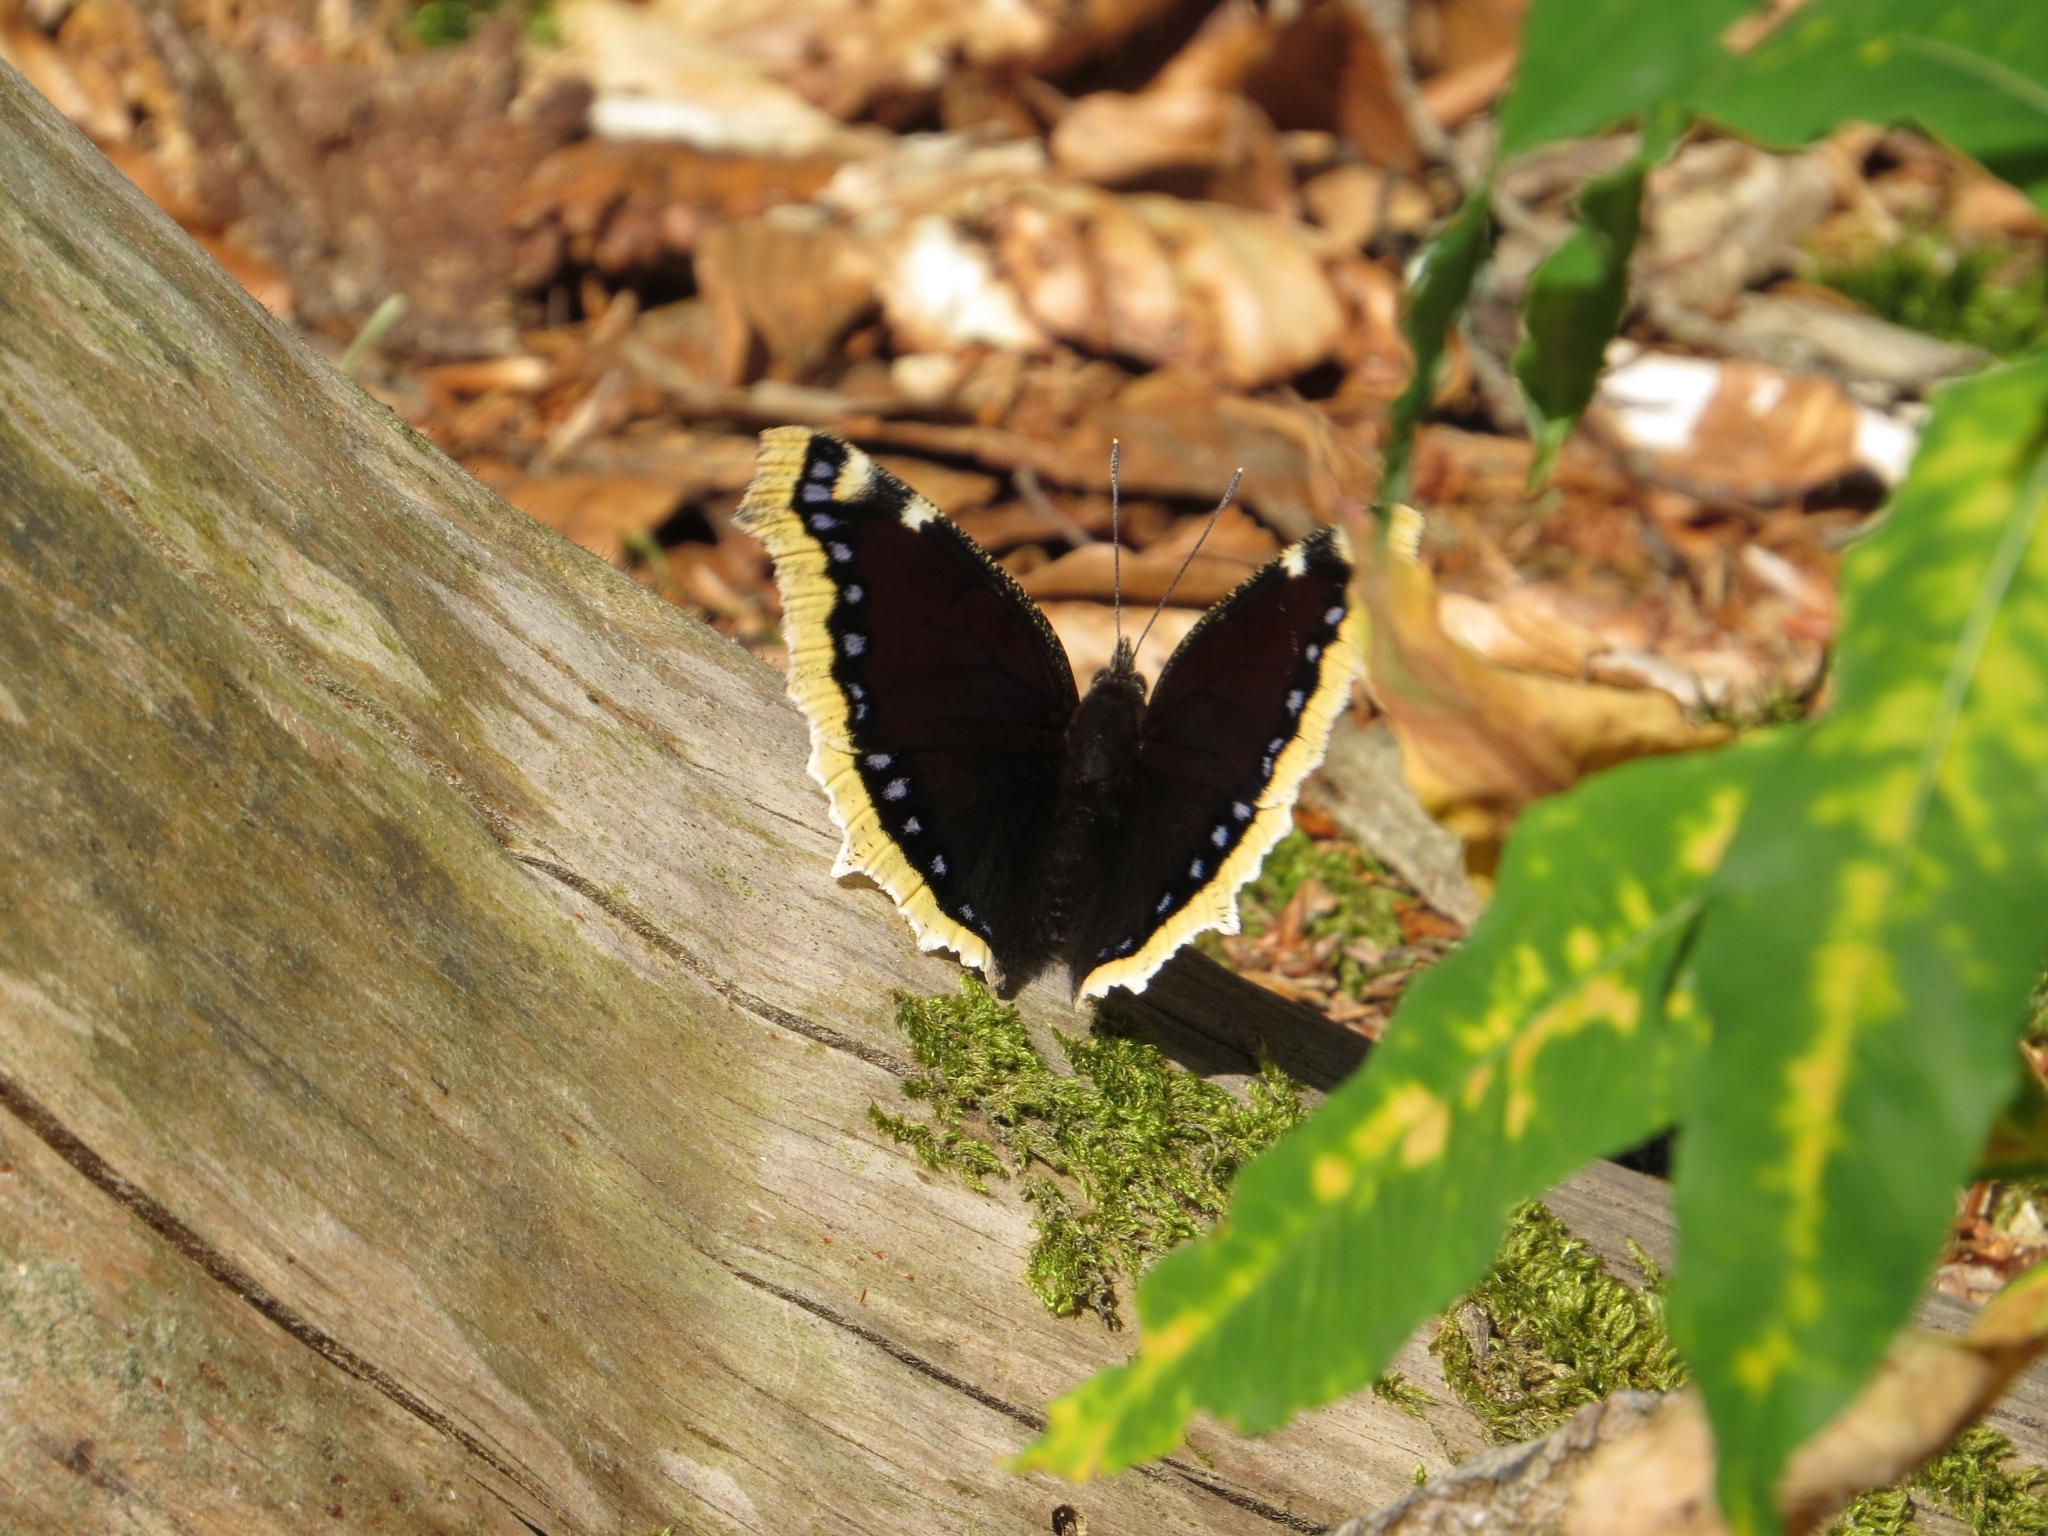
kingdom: Animalia
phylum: Arthropoda
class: Insecta
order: Lepidoptera
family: Nymphalidae
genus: Nymphalis
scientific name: Nymphalis antiopa
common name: Camberwell beauty
